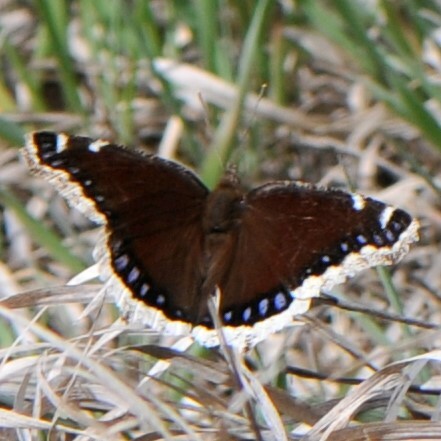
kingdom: Animalia
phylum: Arthropoda
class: Insecta
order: Lepidoptera
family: Nymphalidae
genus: Nymphalis
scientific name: Nymphalis antiopa
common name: Camberwell beauty
